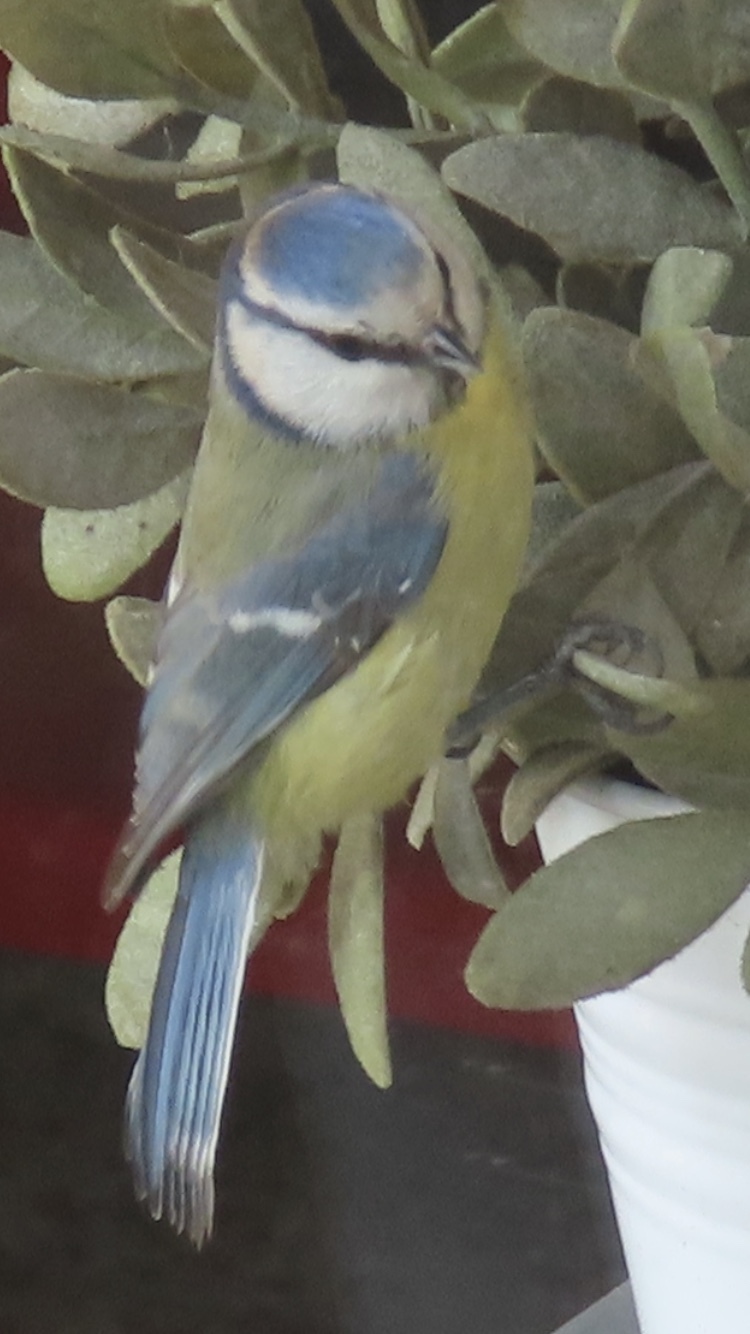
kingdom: Animalia
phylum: Chordata
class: Aves
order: Passeriformes
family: Paridae
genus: Cyanistes
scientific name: Cyanistes caeruleus
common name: Eurasian blue tit
